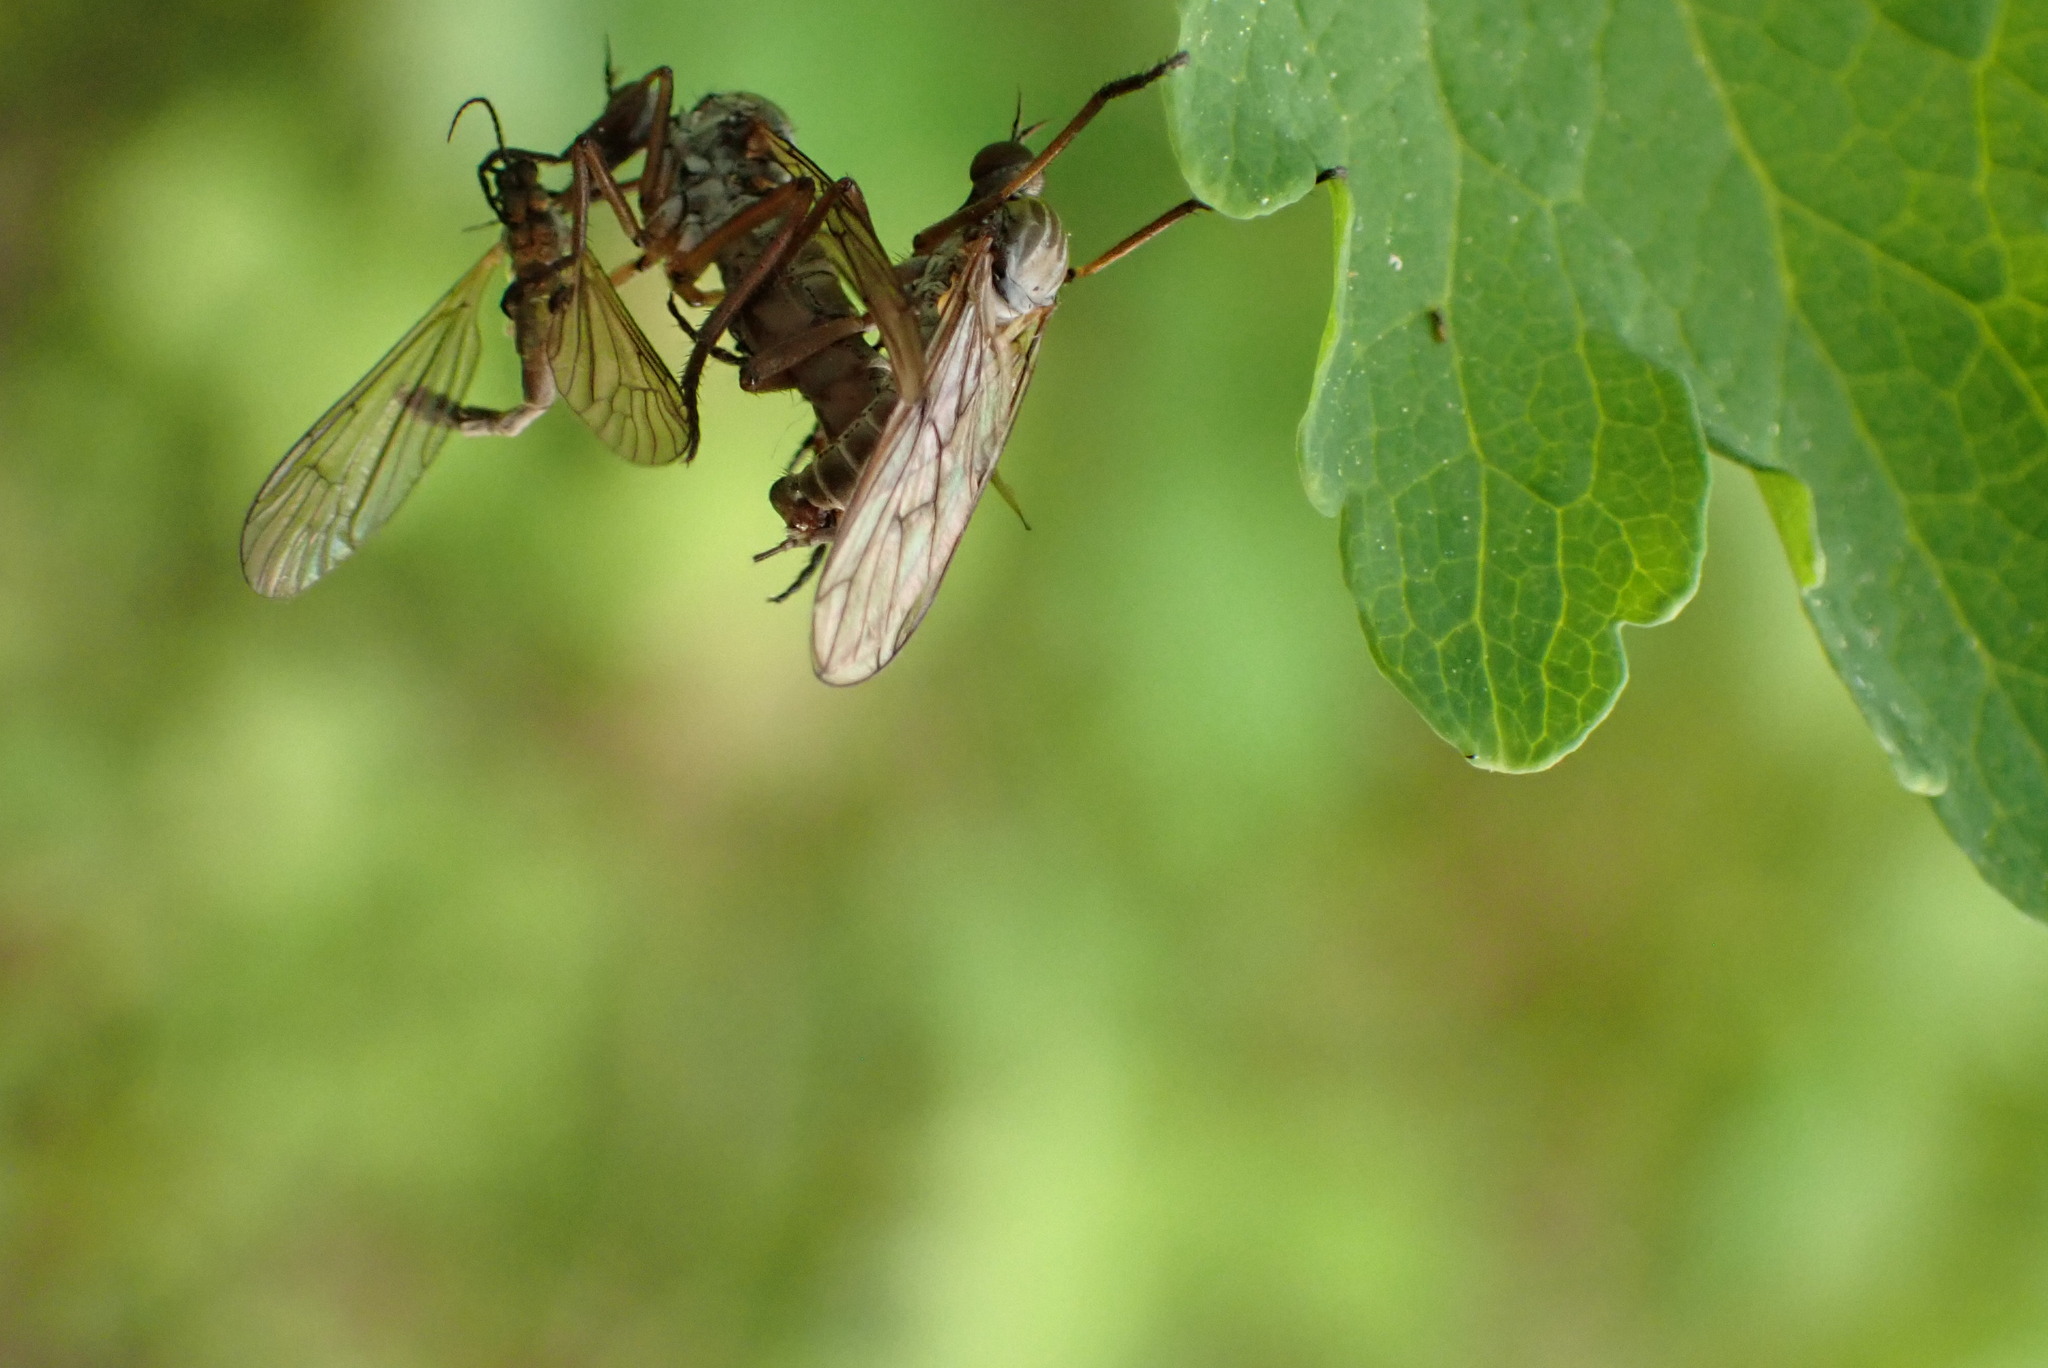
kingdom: Animalia
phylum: Arthropoda
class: Insecta
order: Diptera
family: Empididae
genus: Empis
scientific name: Empis spectabilis
